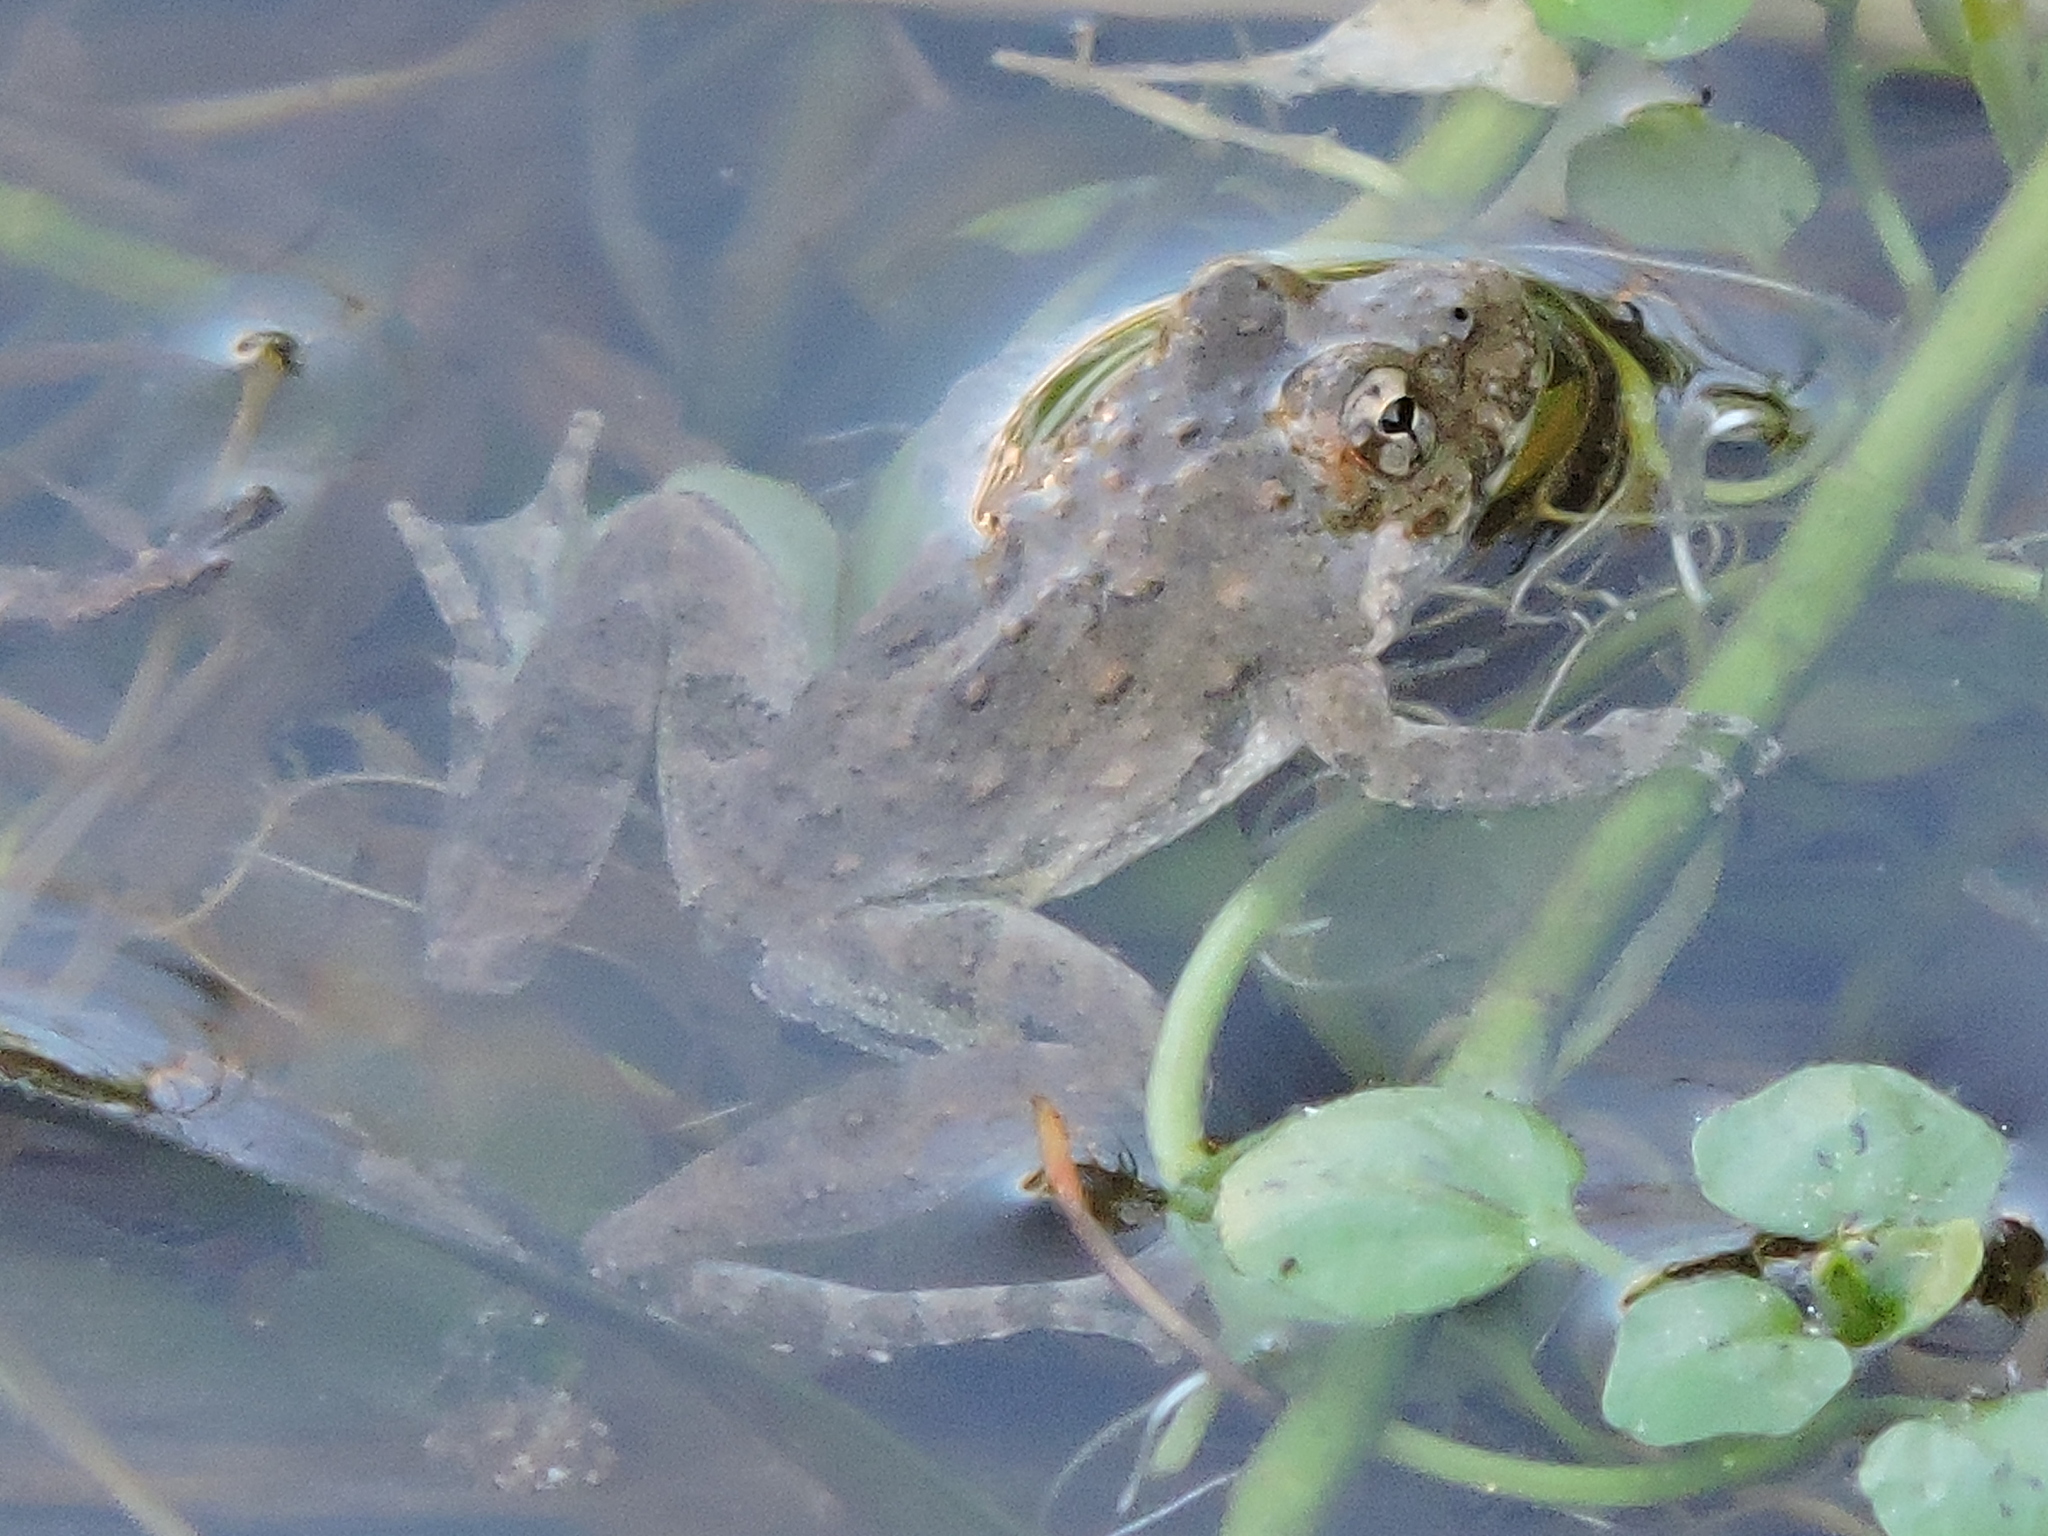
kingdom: Animalia
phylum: Chordata
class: Amphibia
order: Anura
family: Hylidae
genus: Acris
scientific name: Acris blanchardi
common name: Blanchard's cricket frog
